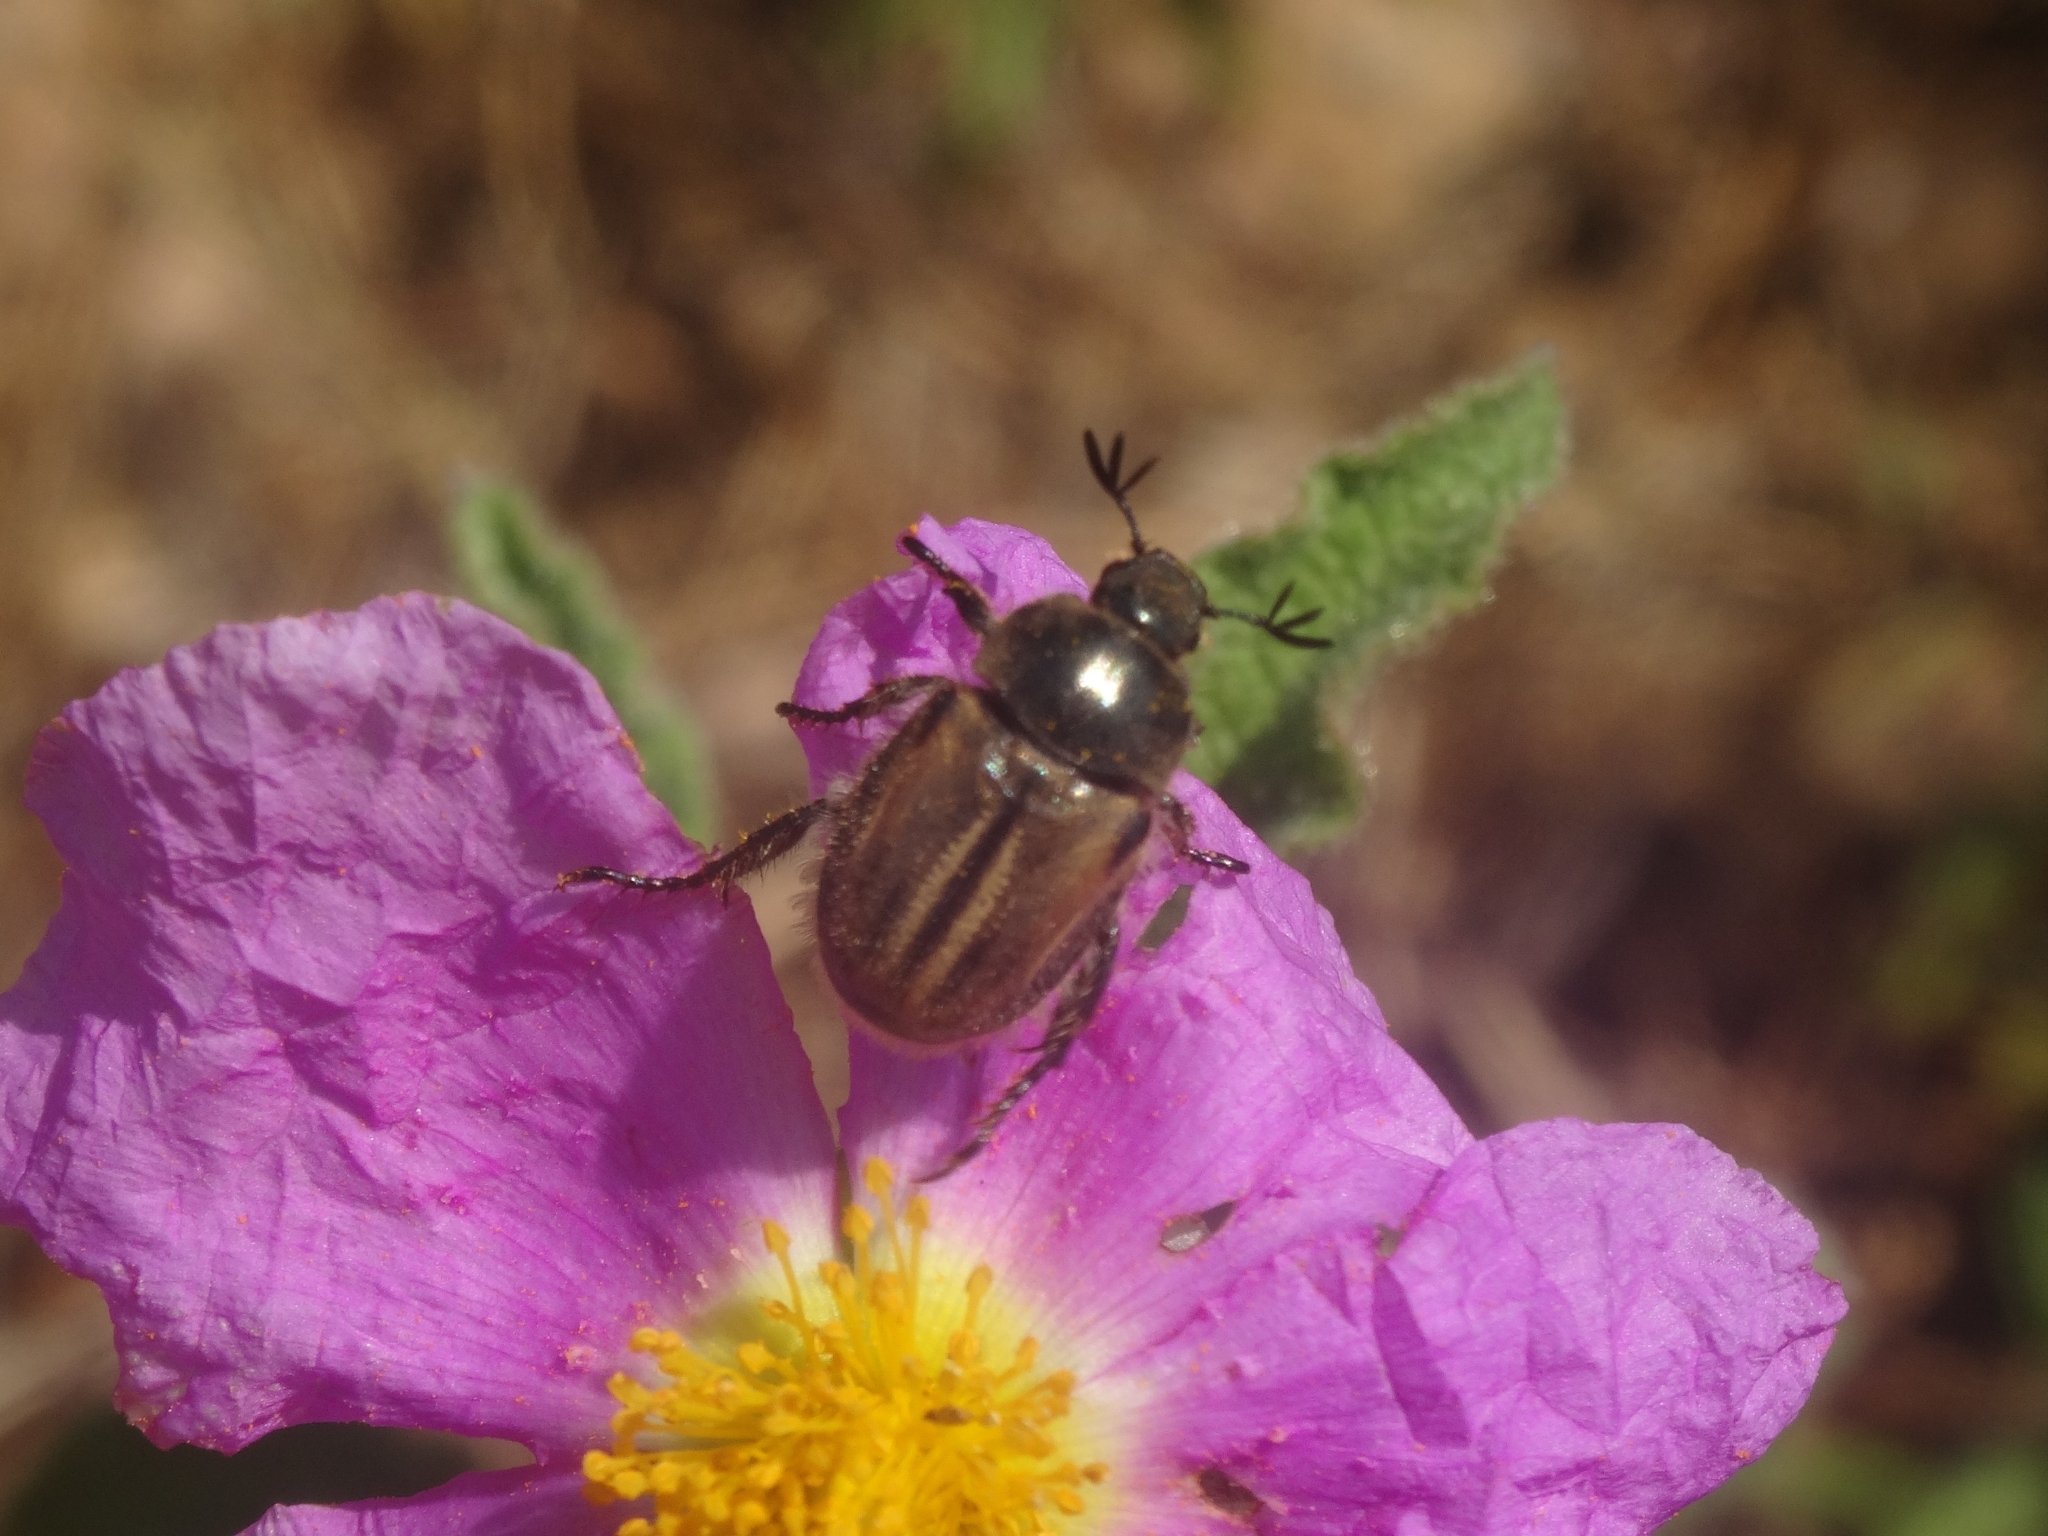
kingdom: Animalia
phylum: Arthropoda
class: Insecta
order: Coleoptera
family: Scarabaeidae
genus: Blitopertha
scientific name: Blitopertha lineolata
